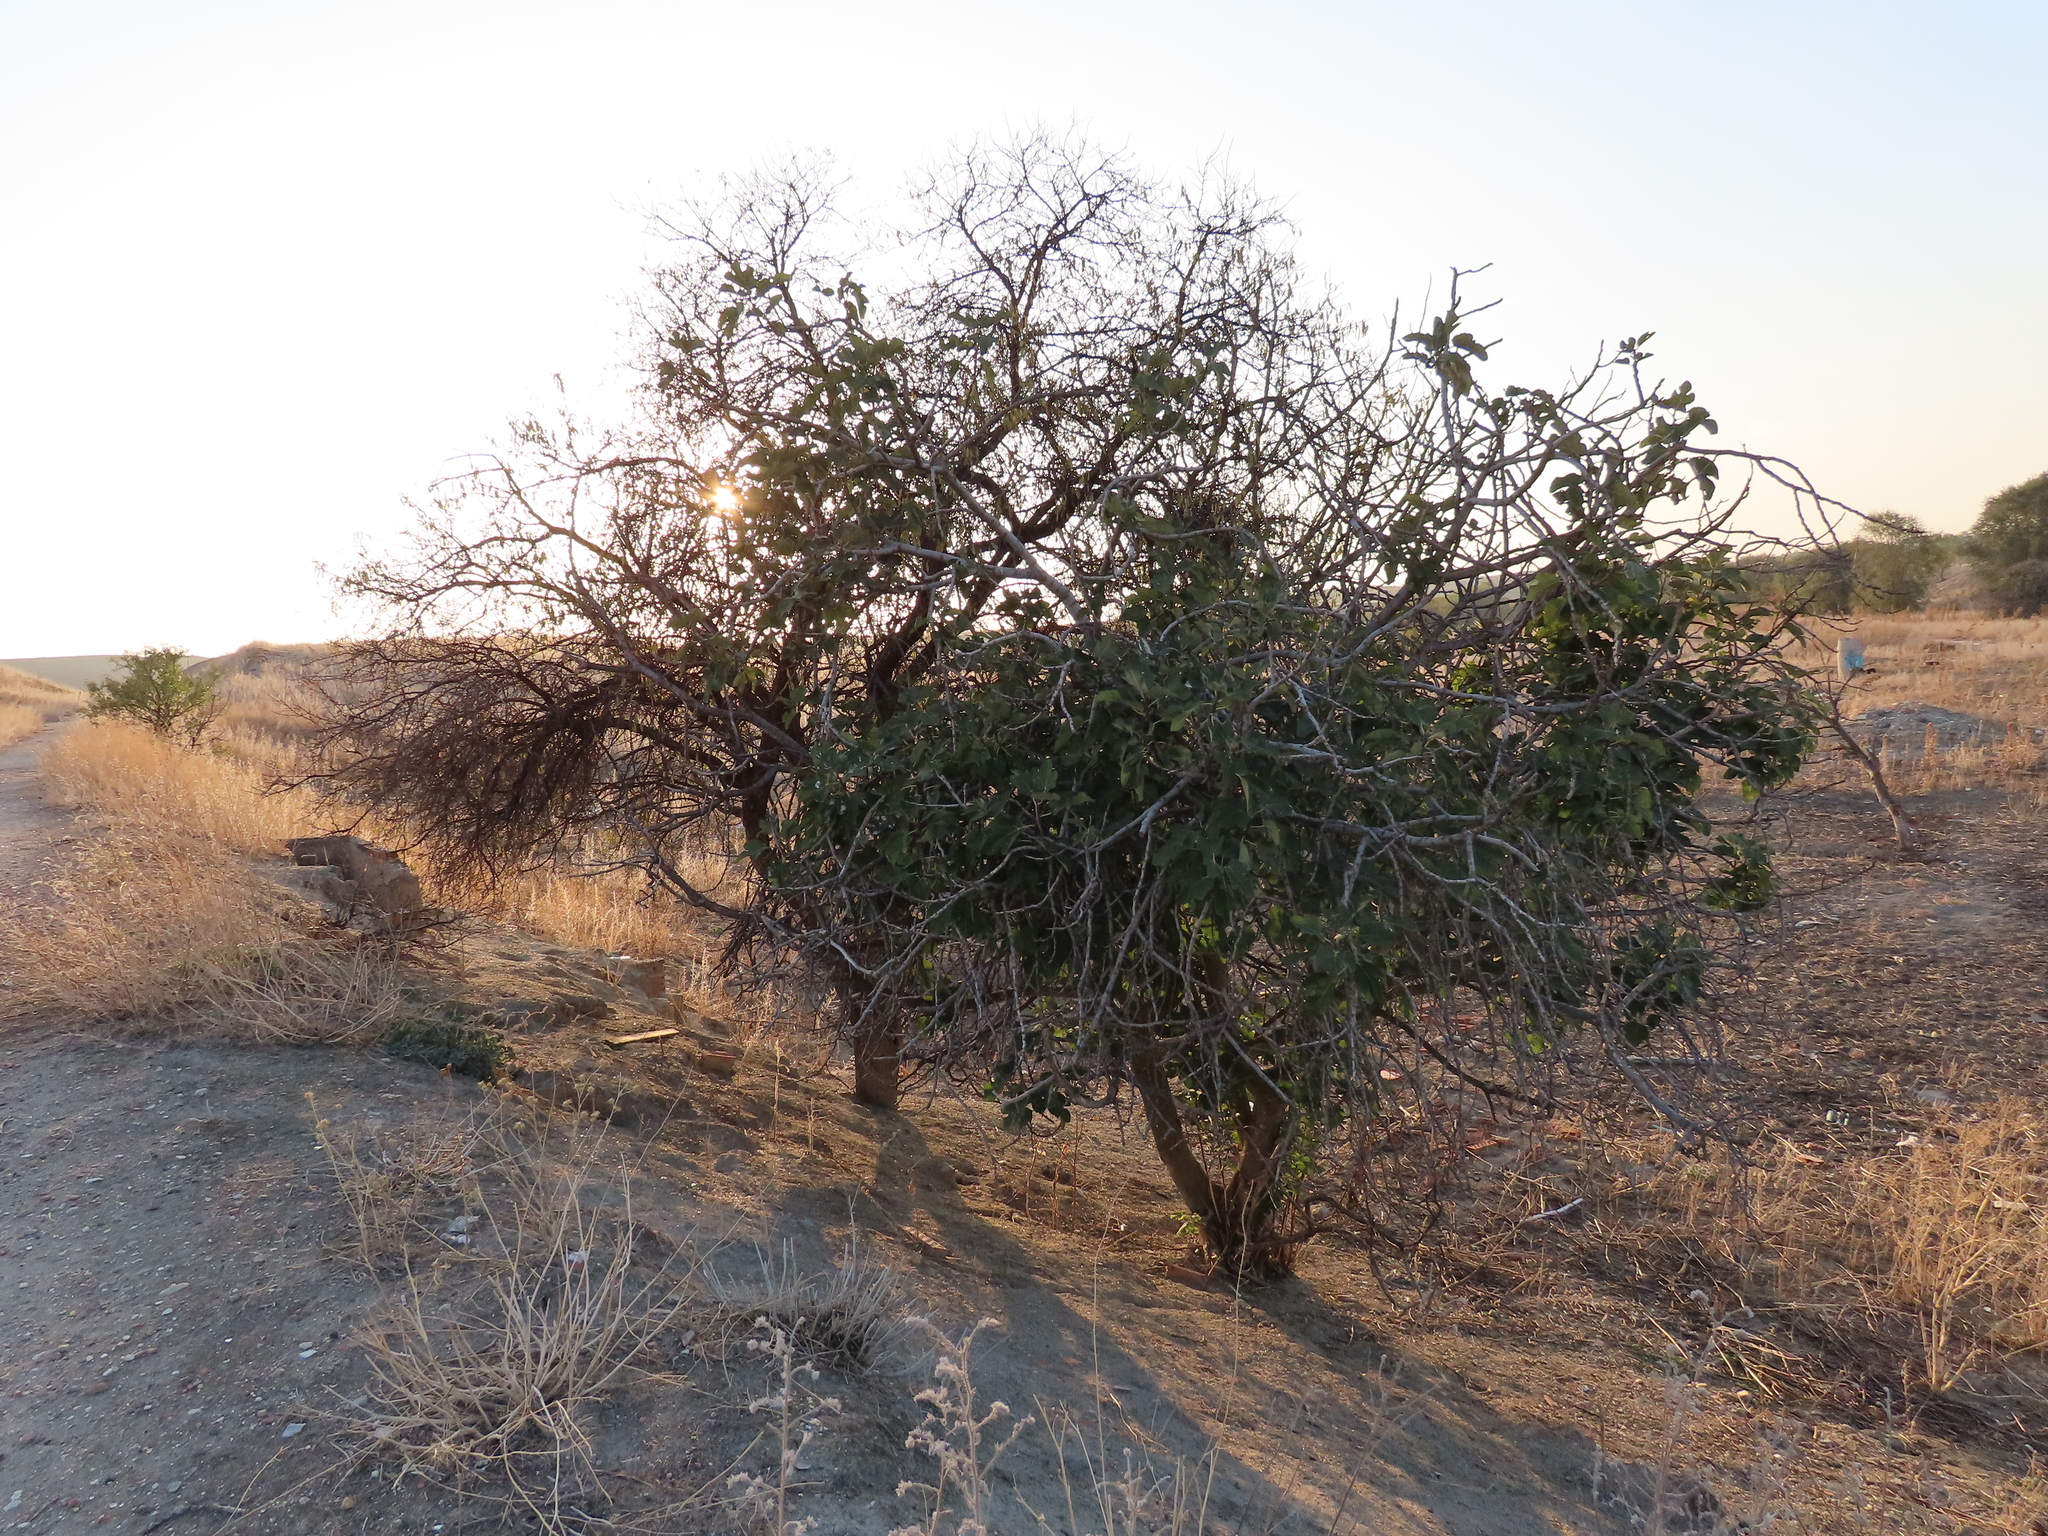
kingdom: Plantae
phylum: Tracheophyta
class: Magnoliopsida
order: Rosales
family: Moraceae
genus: Ficus
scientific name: Ficus carica
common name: Fig
